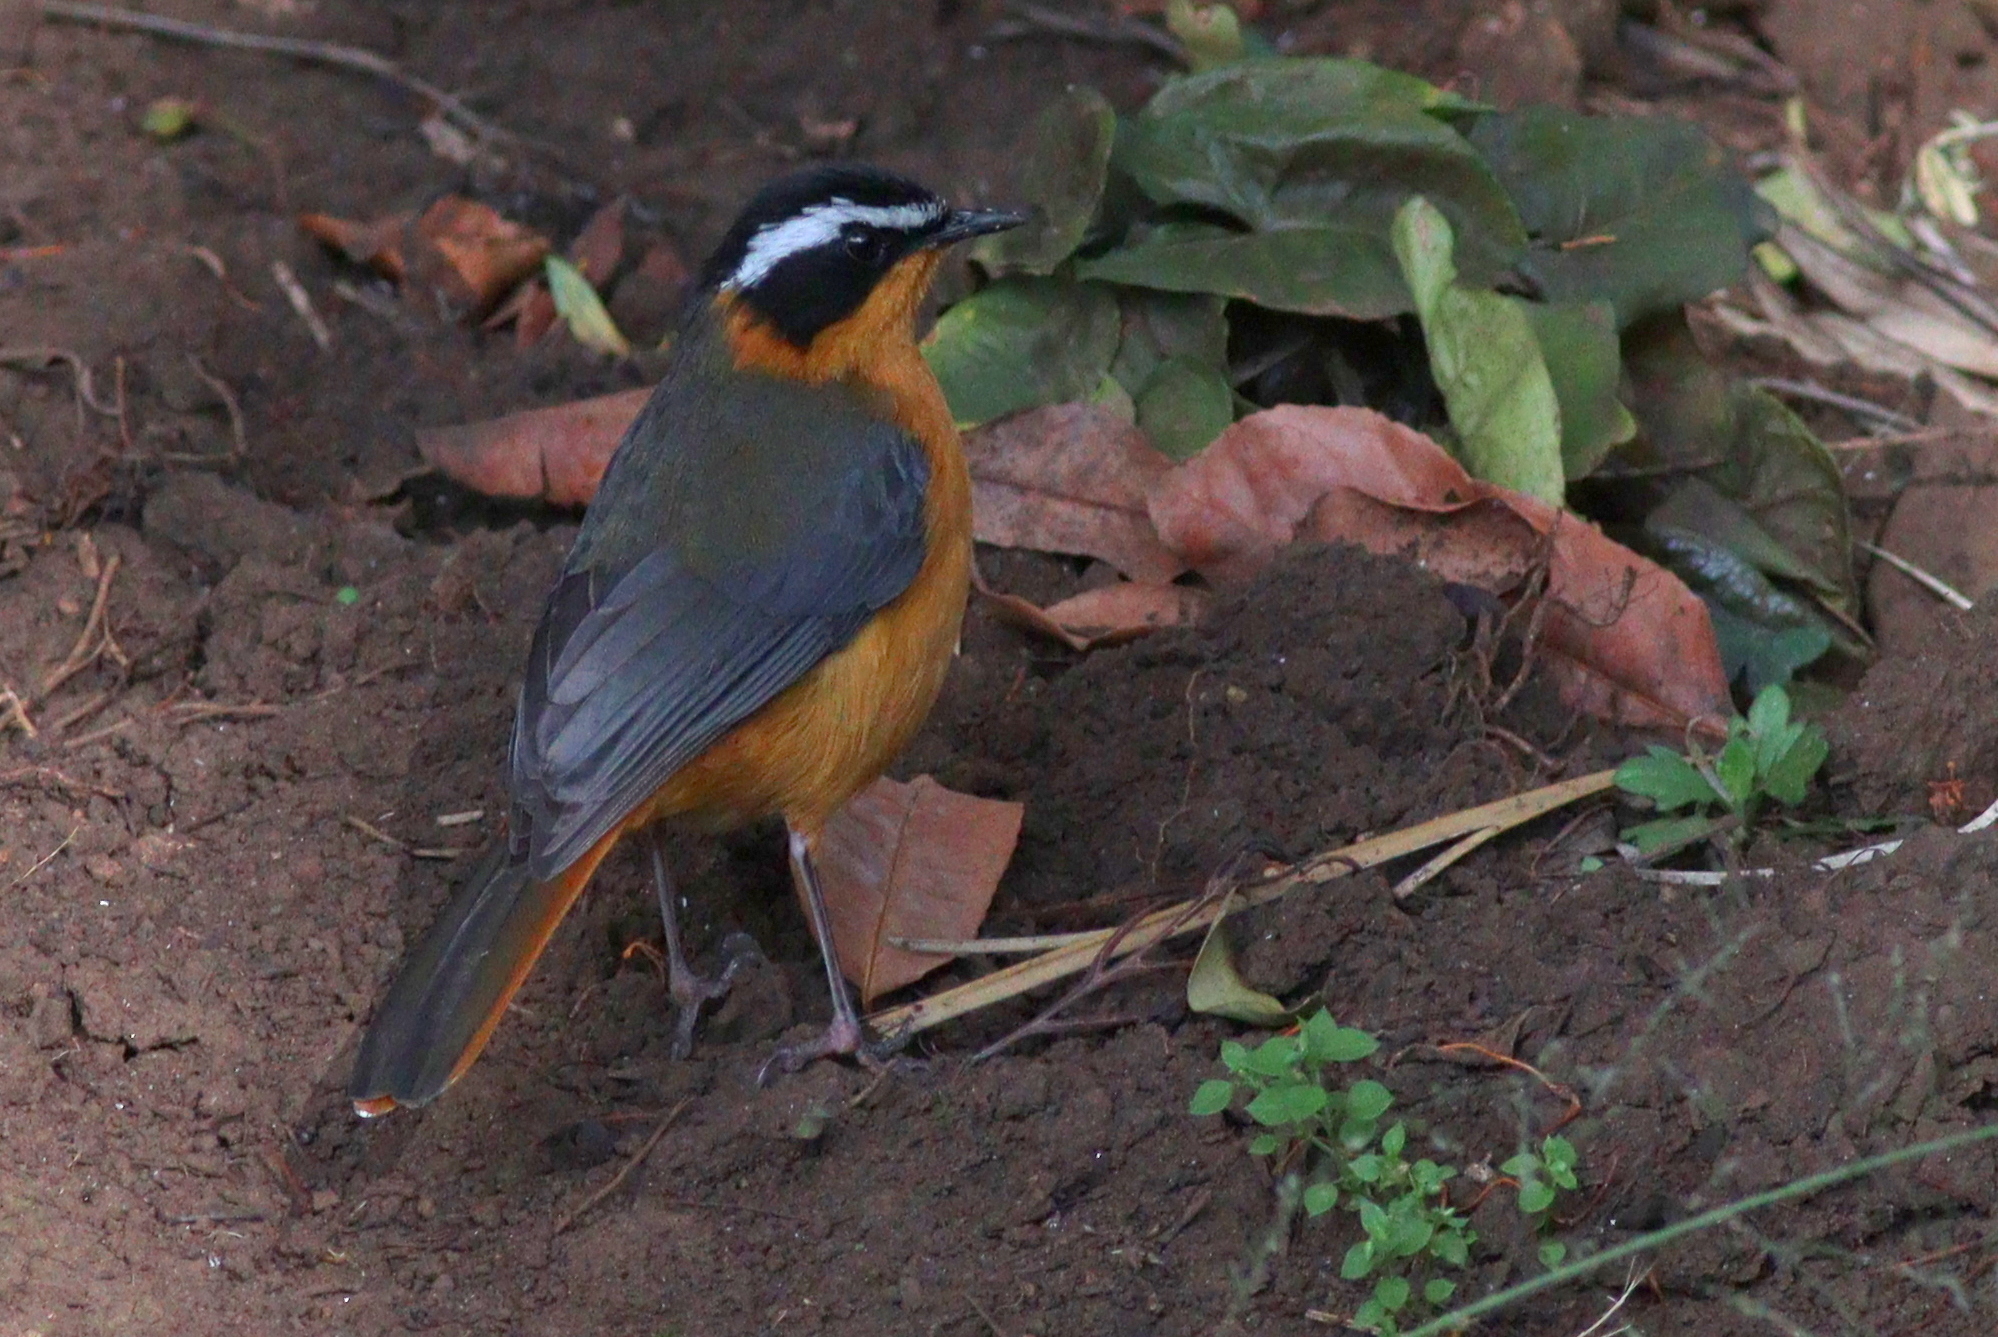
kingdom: Animalia
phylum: Chordata
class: Aves
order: Passeriformes
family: Muscicapidae
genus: Cossypha
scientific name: Cossypha heuglini
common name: White-browed robin-chat
